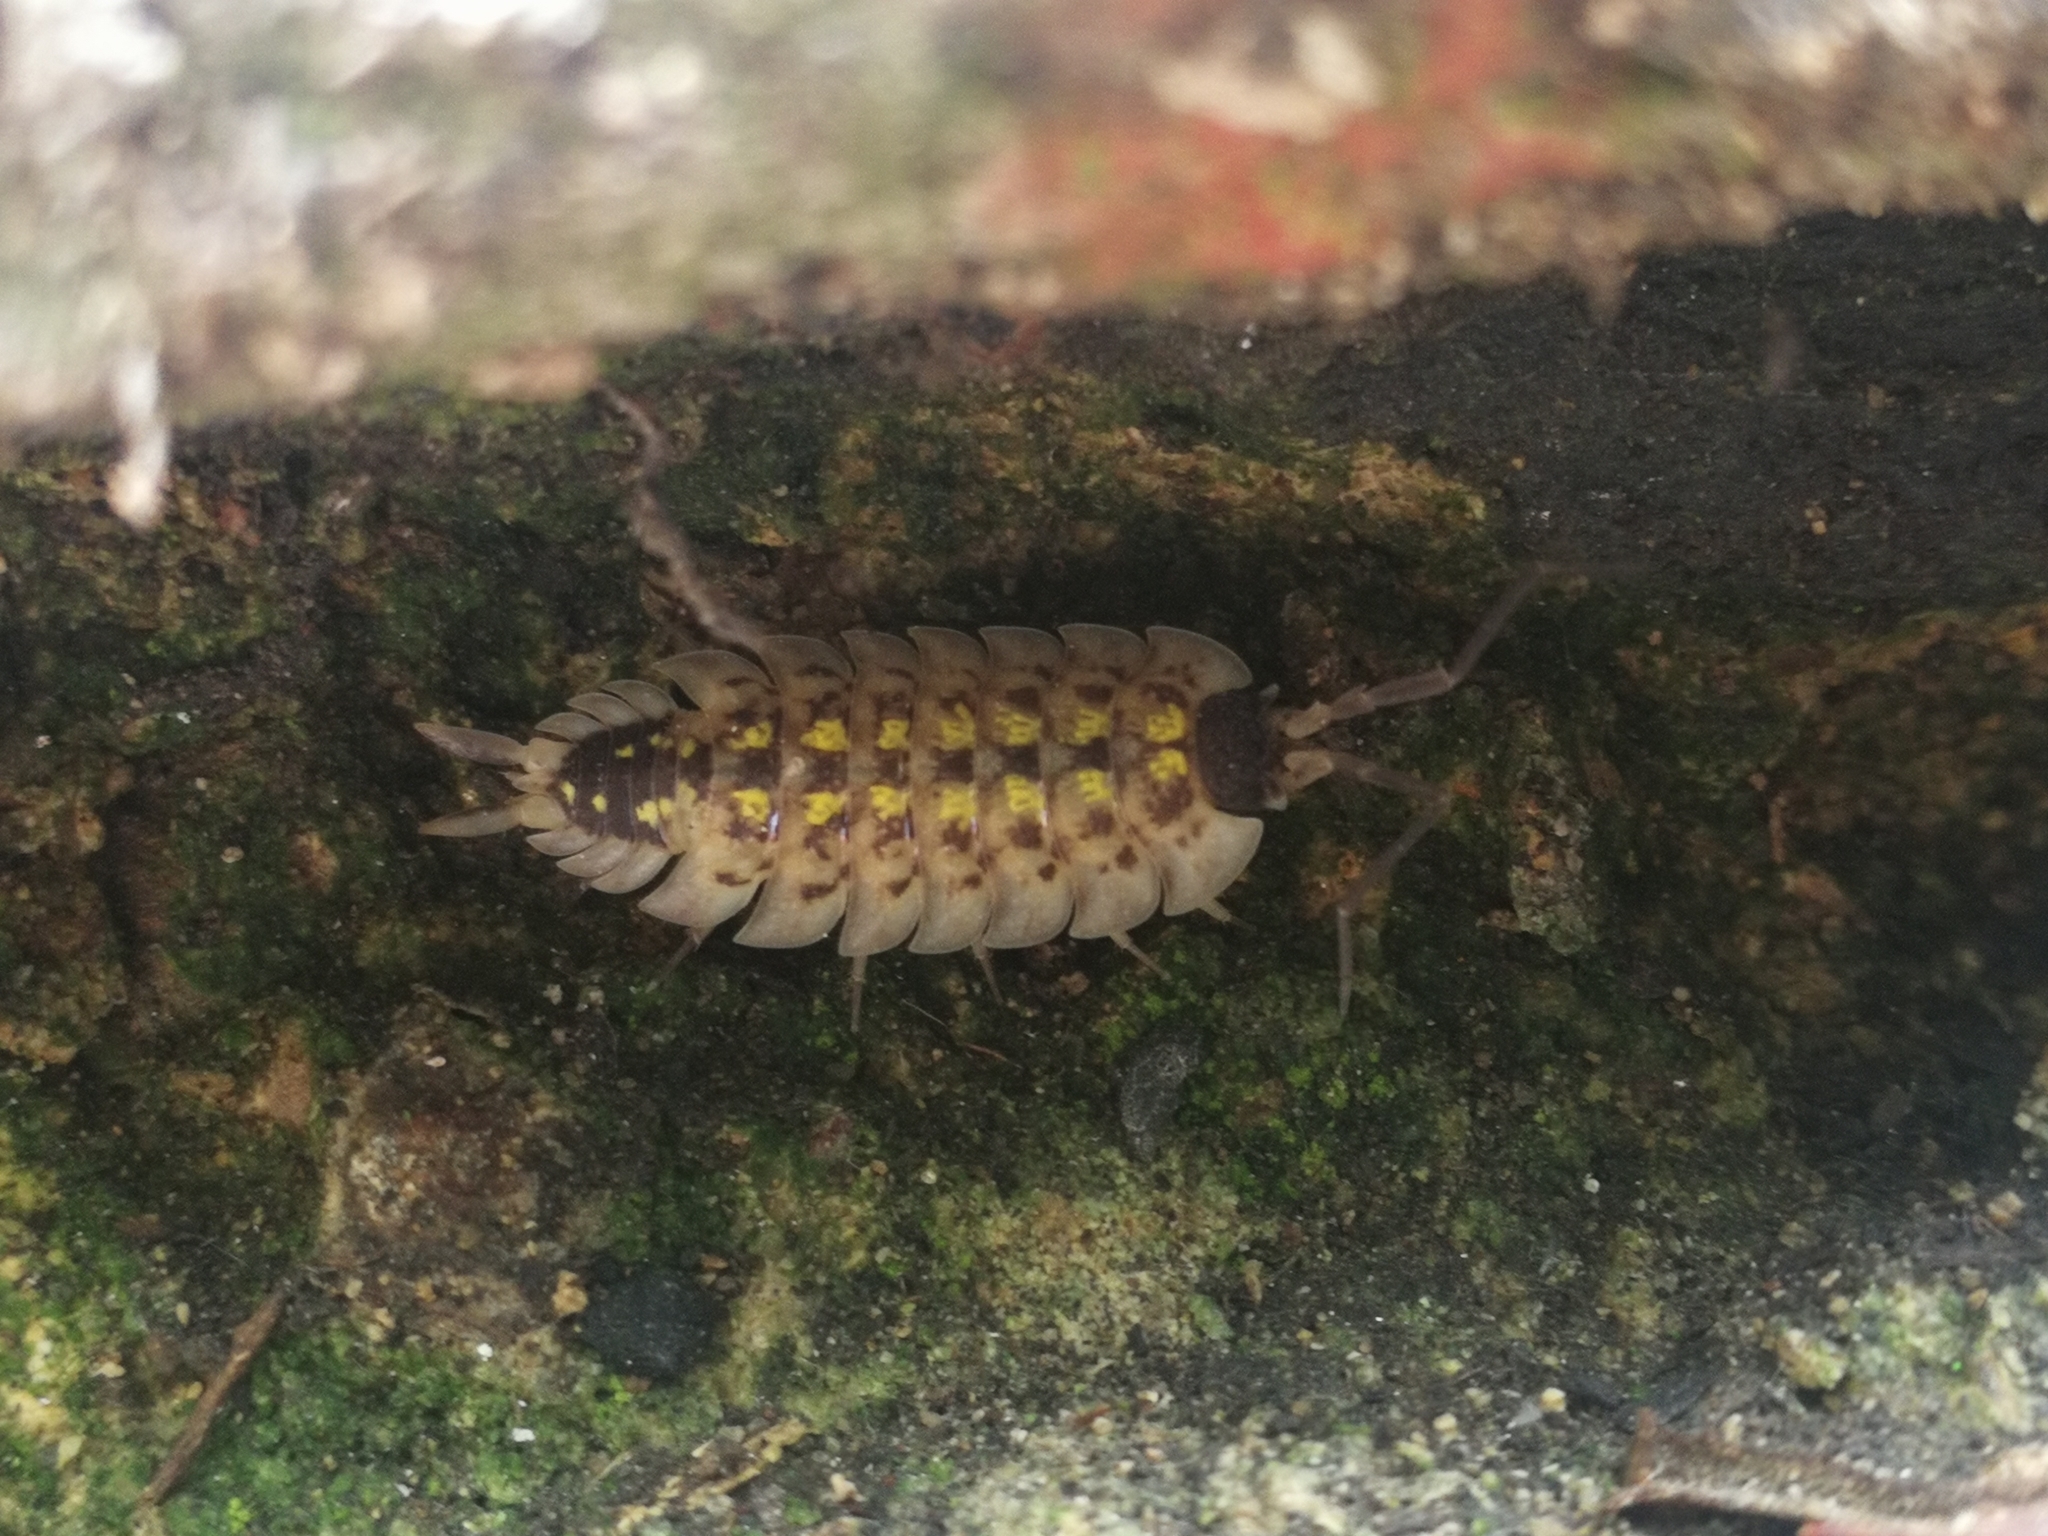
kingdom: Animalia
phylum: Arthropoda
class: Malacostraca
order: Isopoda
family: Porcellionidae
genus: Porcellio
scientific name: Porcellio spinicornis
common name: Painted woodlouse
